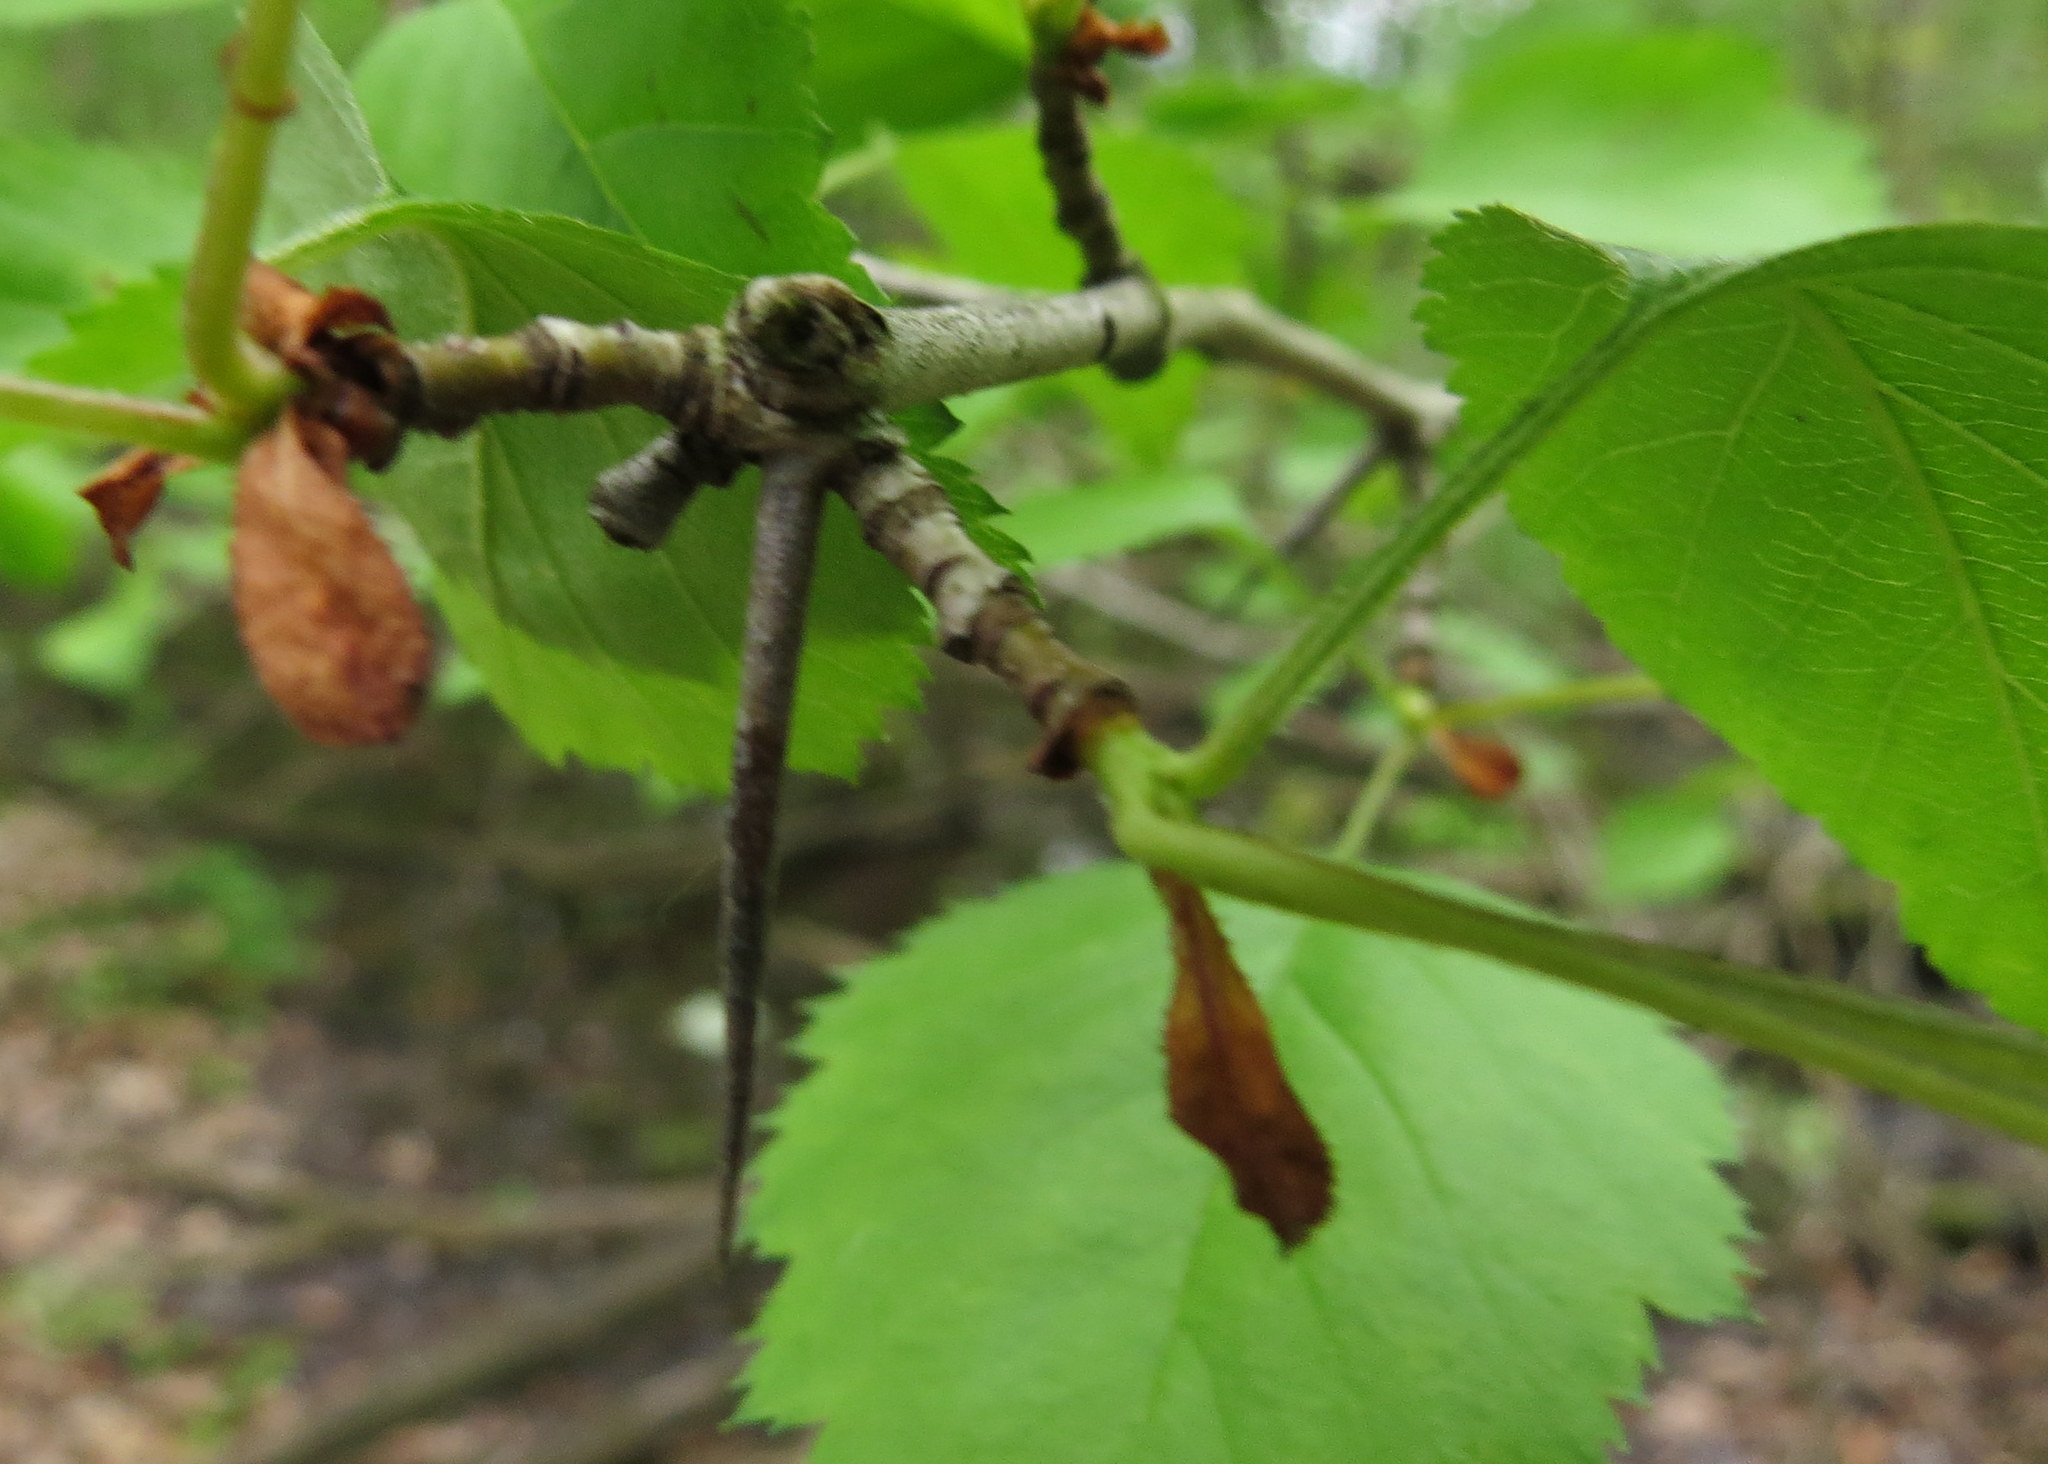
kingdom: Plantae
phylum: Tracheophyta
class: Magnoliopsida
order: Rosales
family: Rosaceae
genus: Crataegus
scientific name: Crataegus holmesiana
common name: Holmes' hawthorn
